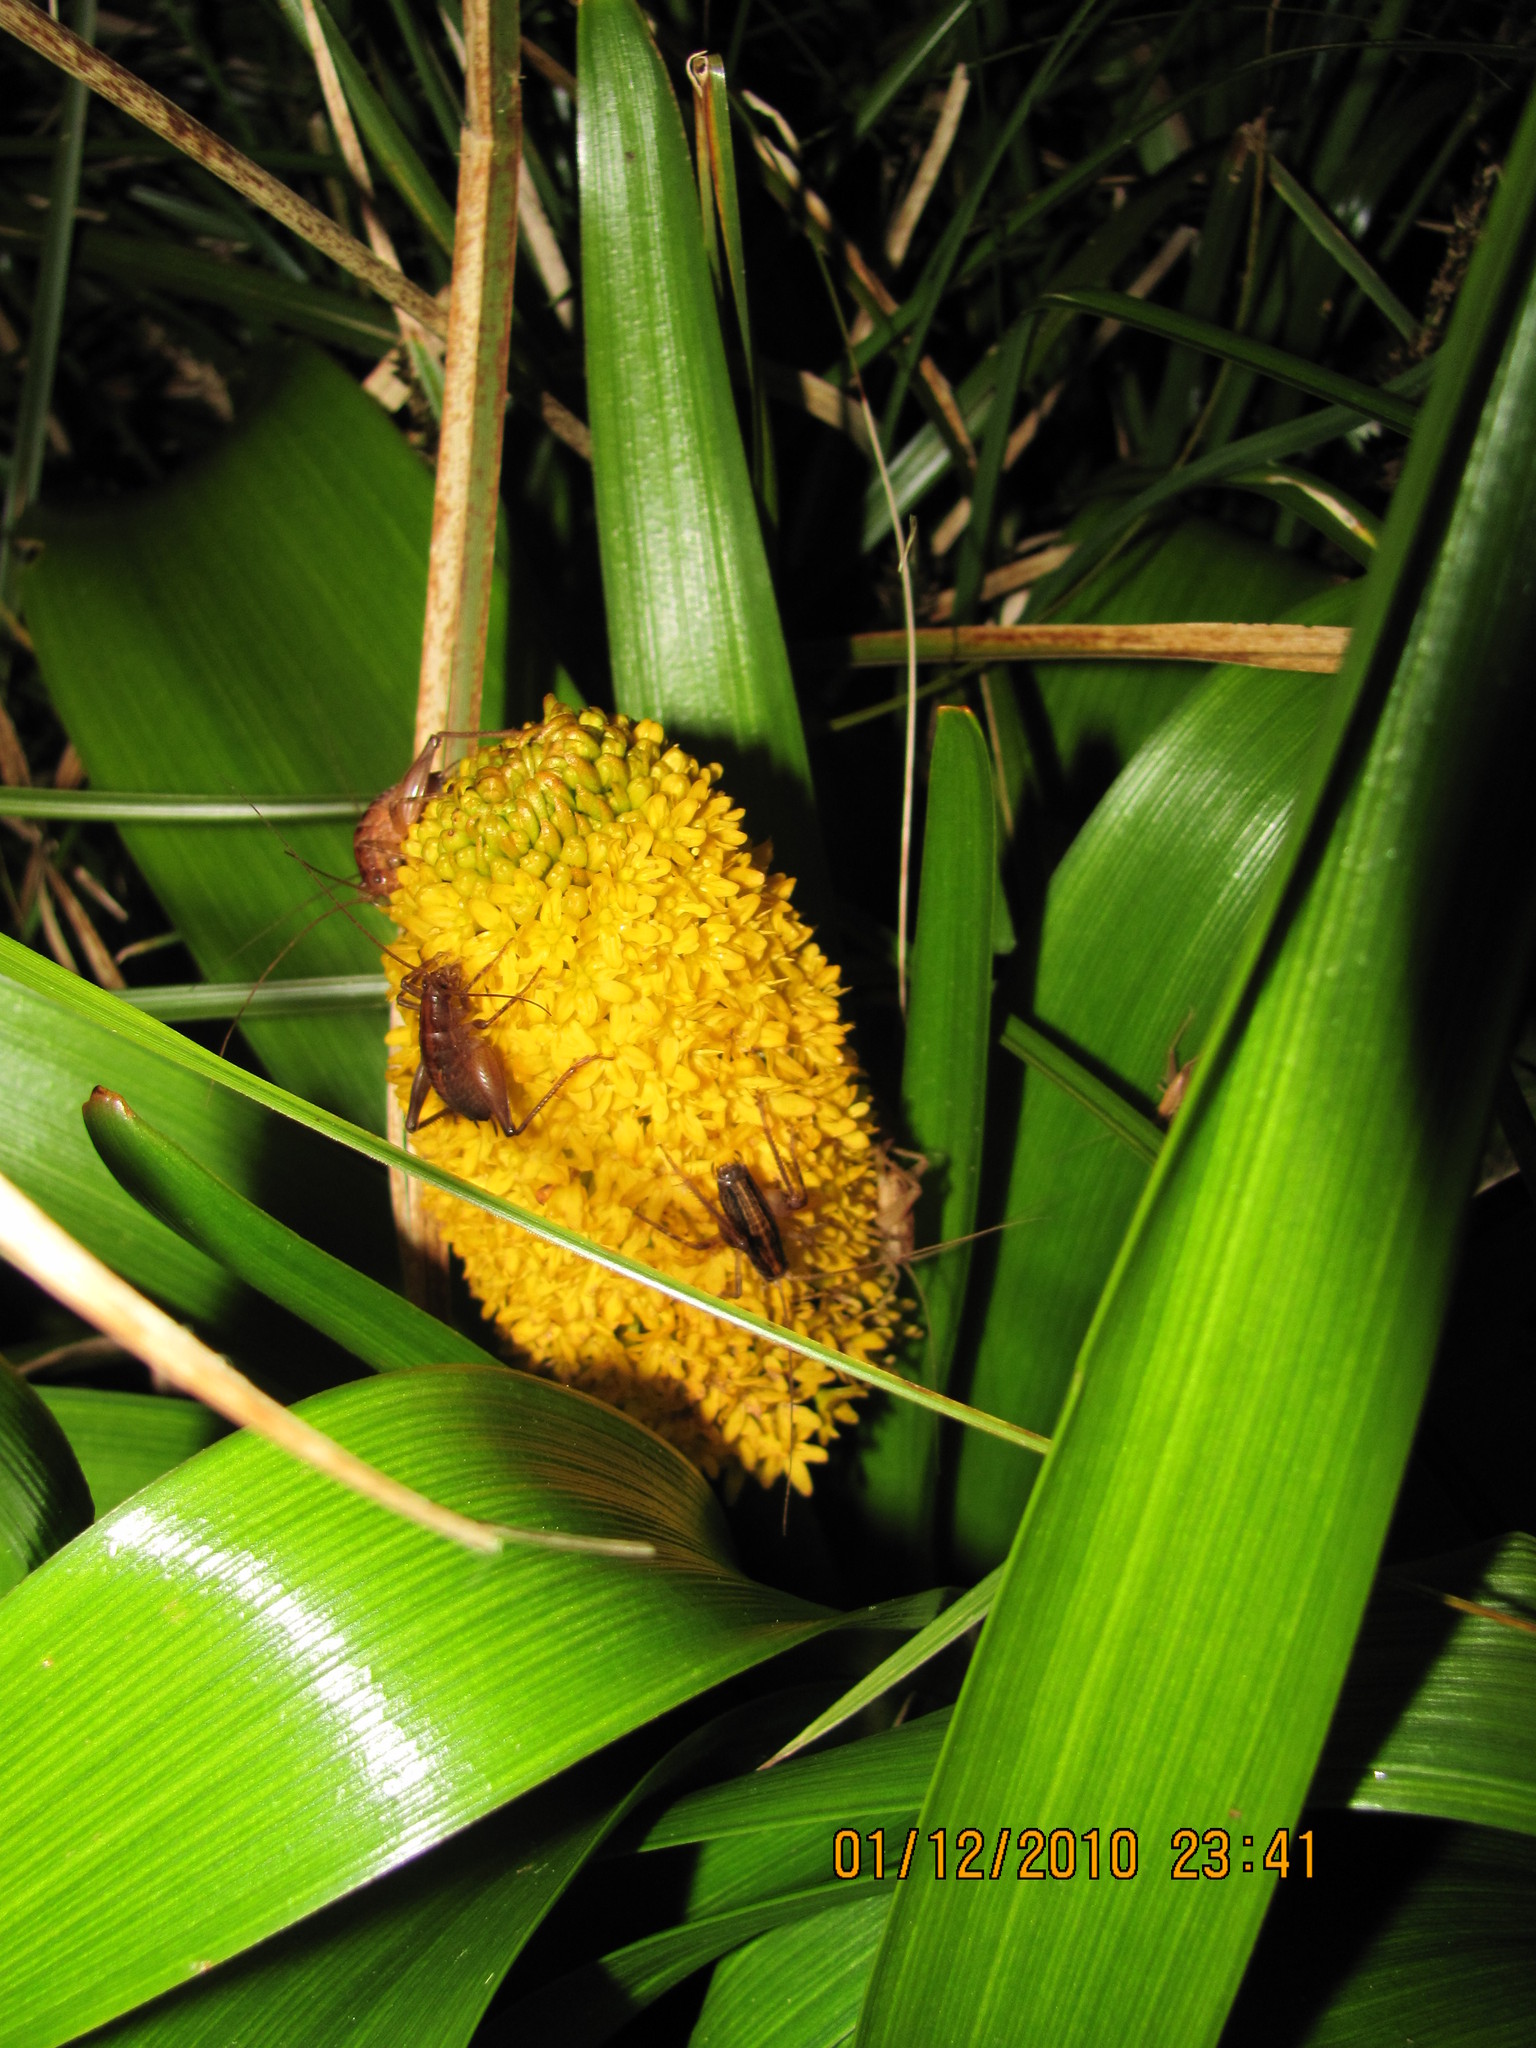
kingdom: Animalia
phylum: Arthropoda
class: Insecta
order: Orthoptera
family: Rhaphidophoridae
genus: Notoplectron
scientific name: Notoplectron campbellensis
